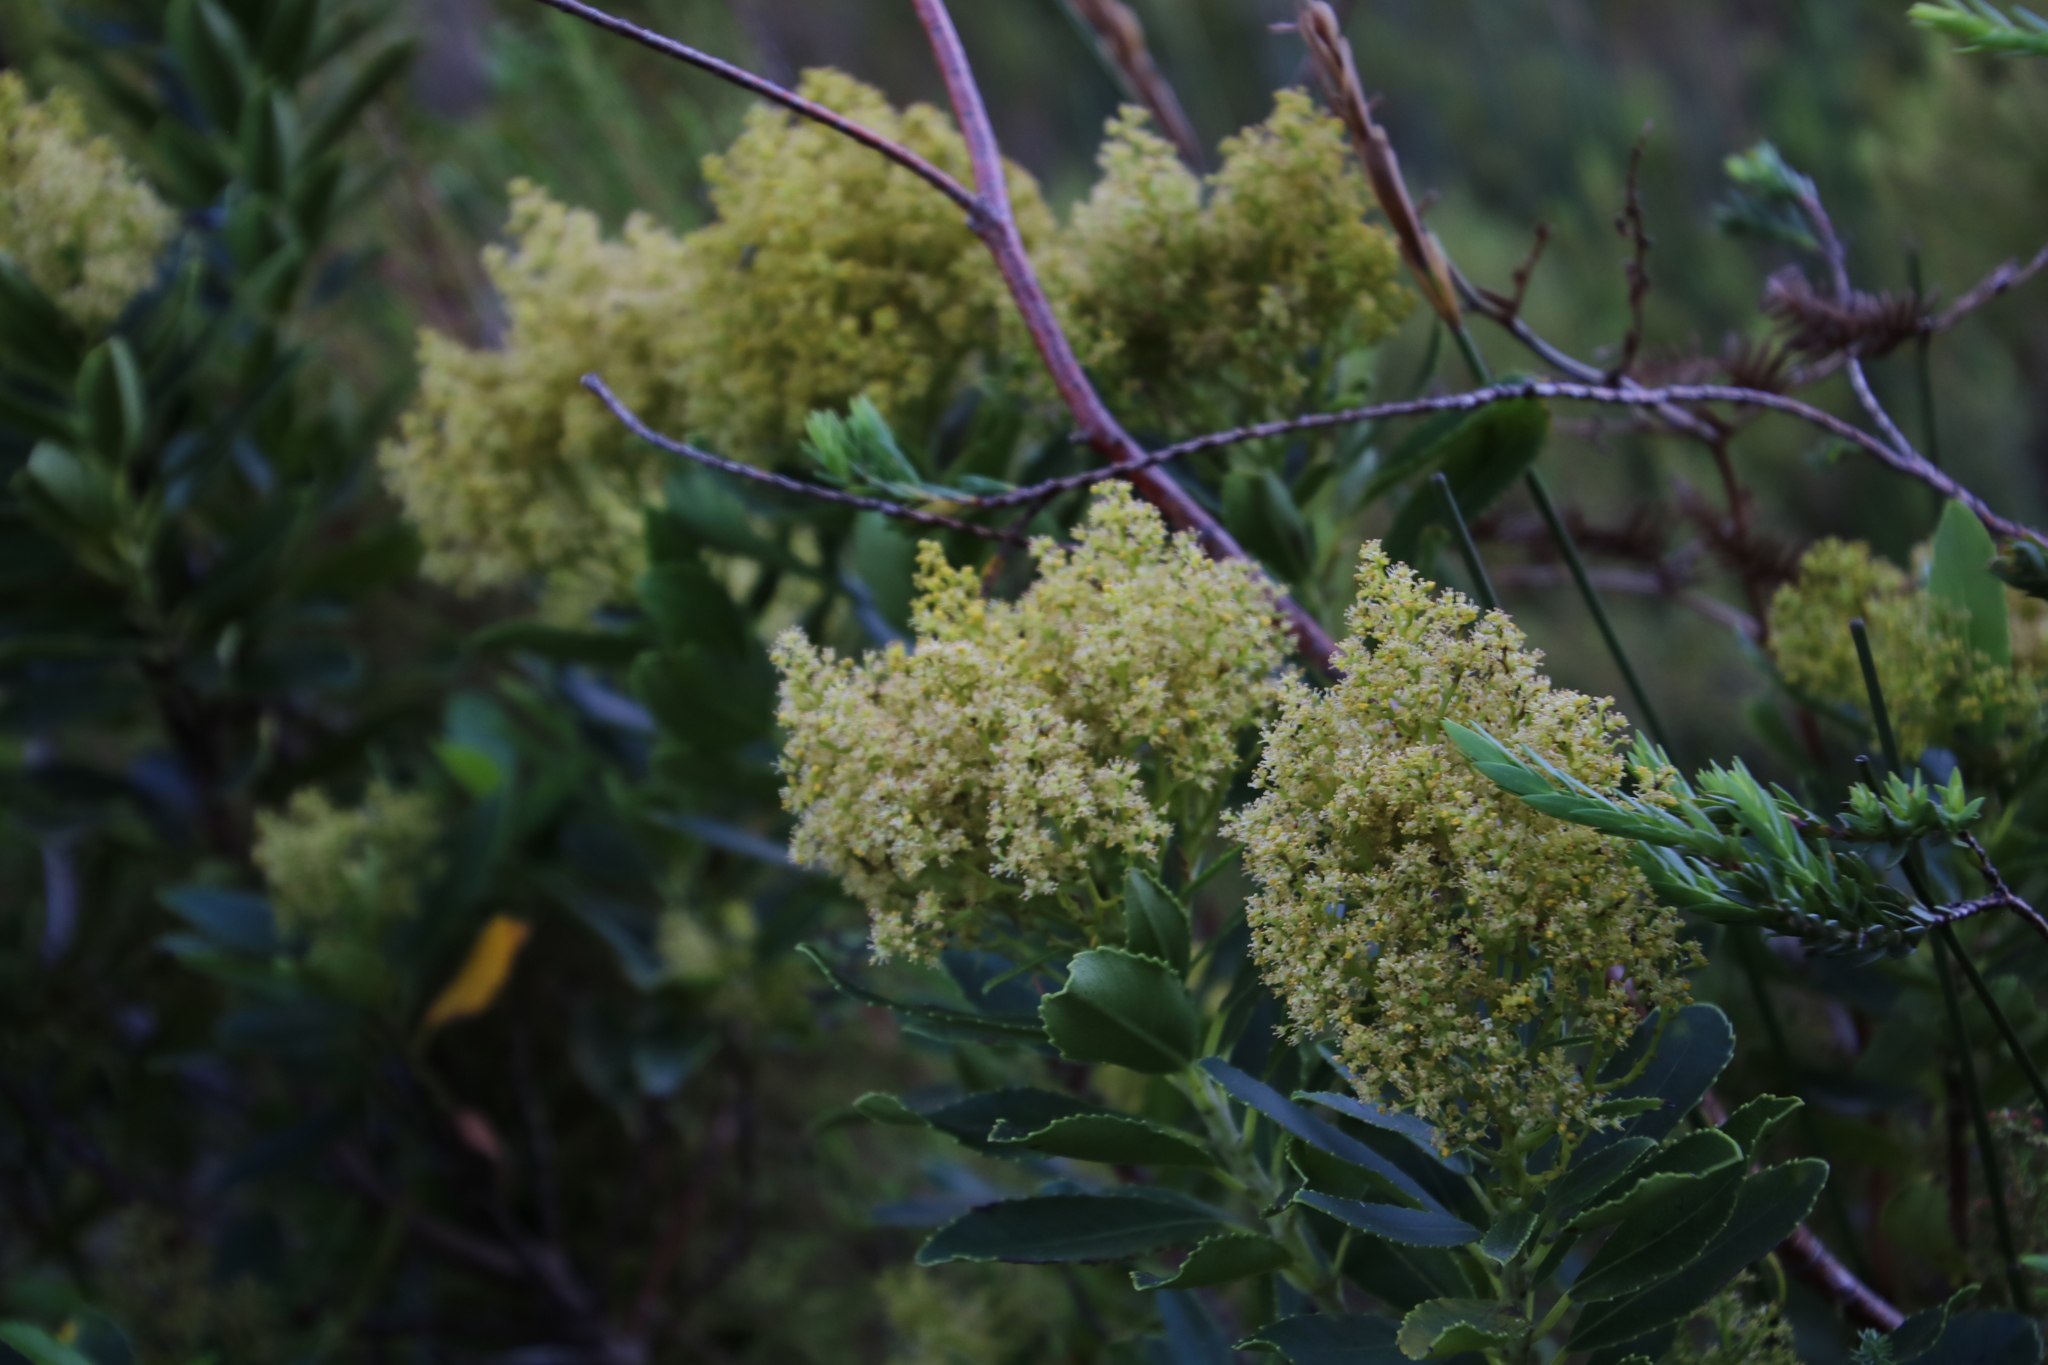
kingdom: Plantae
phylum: Tracheophyta
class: Magnoliopsida
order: Sapindales
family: Anacardiaceae
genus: Laurophyllus
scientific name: Laurophyllus capensis
